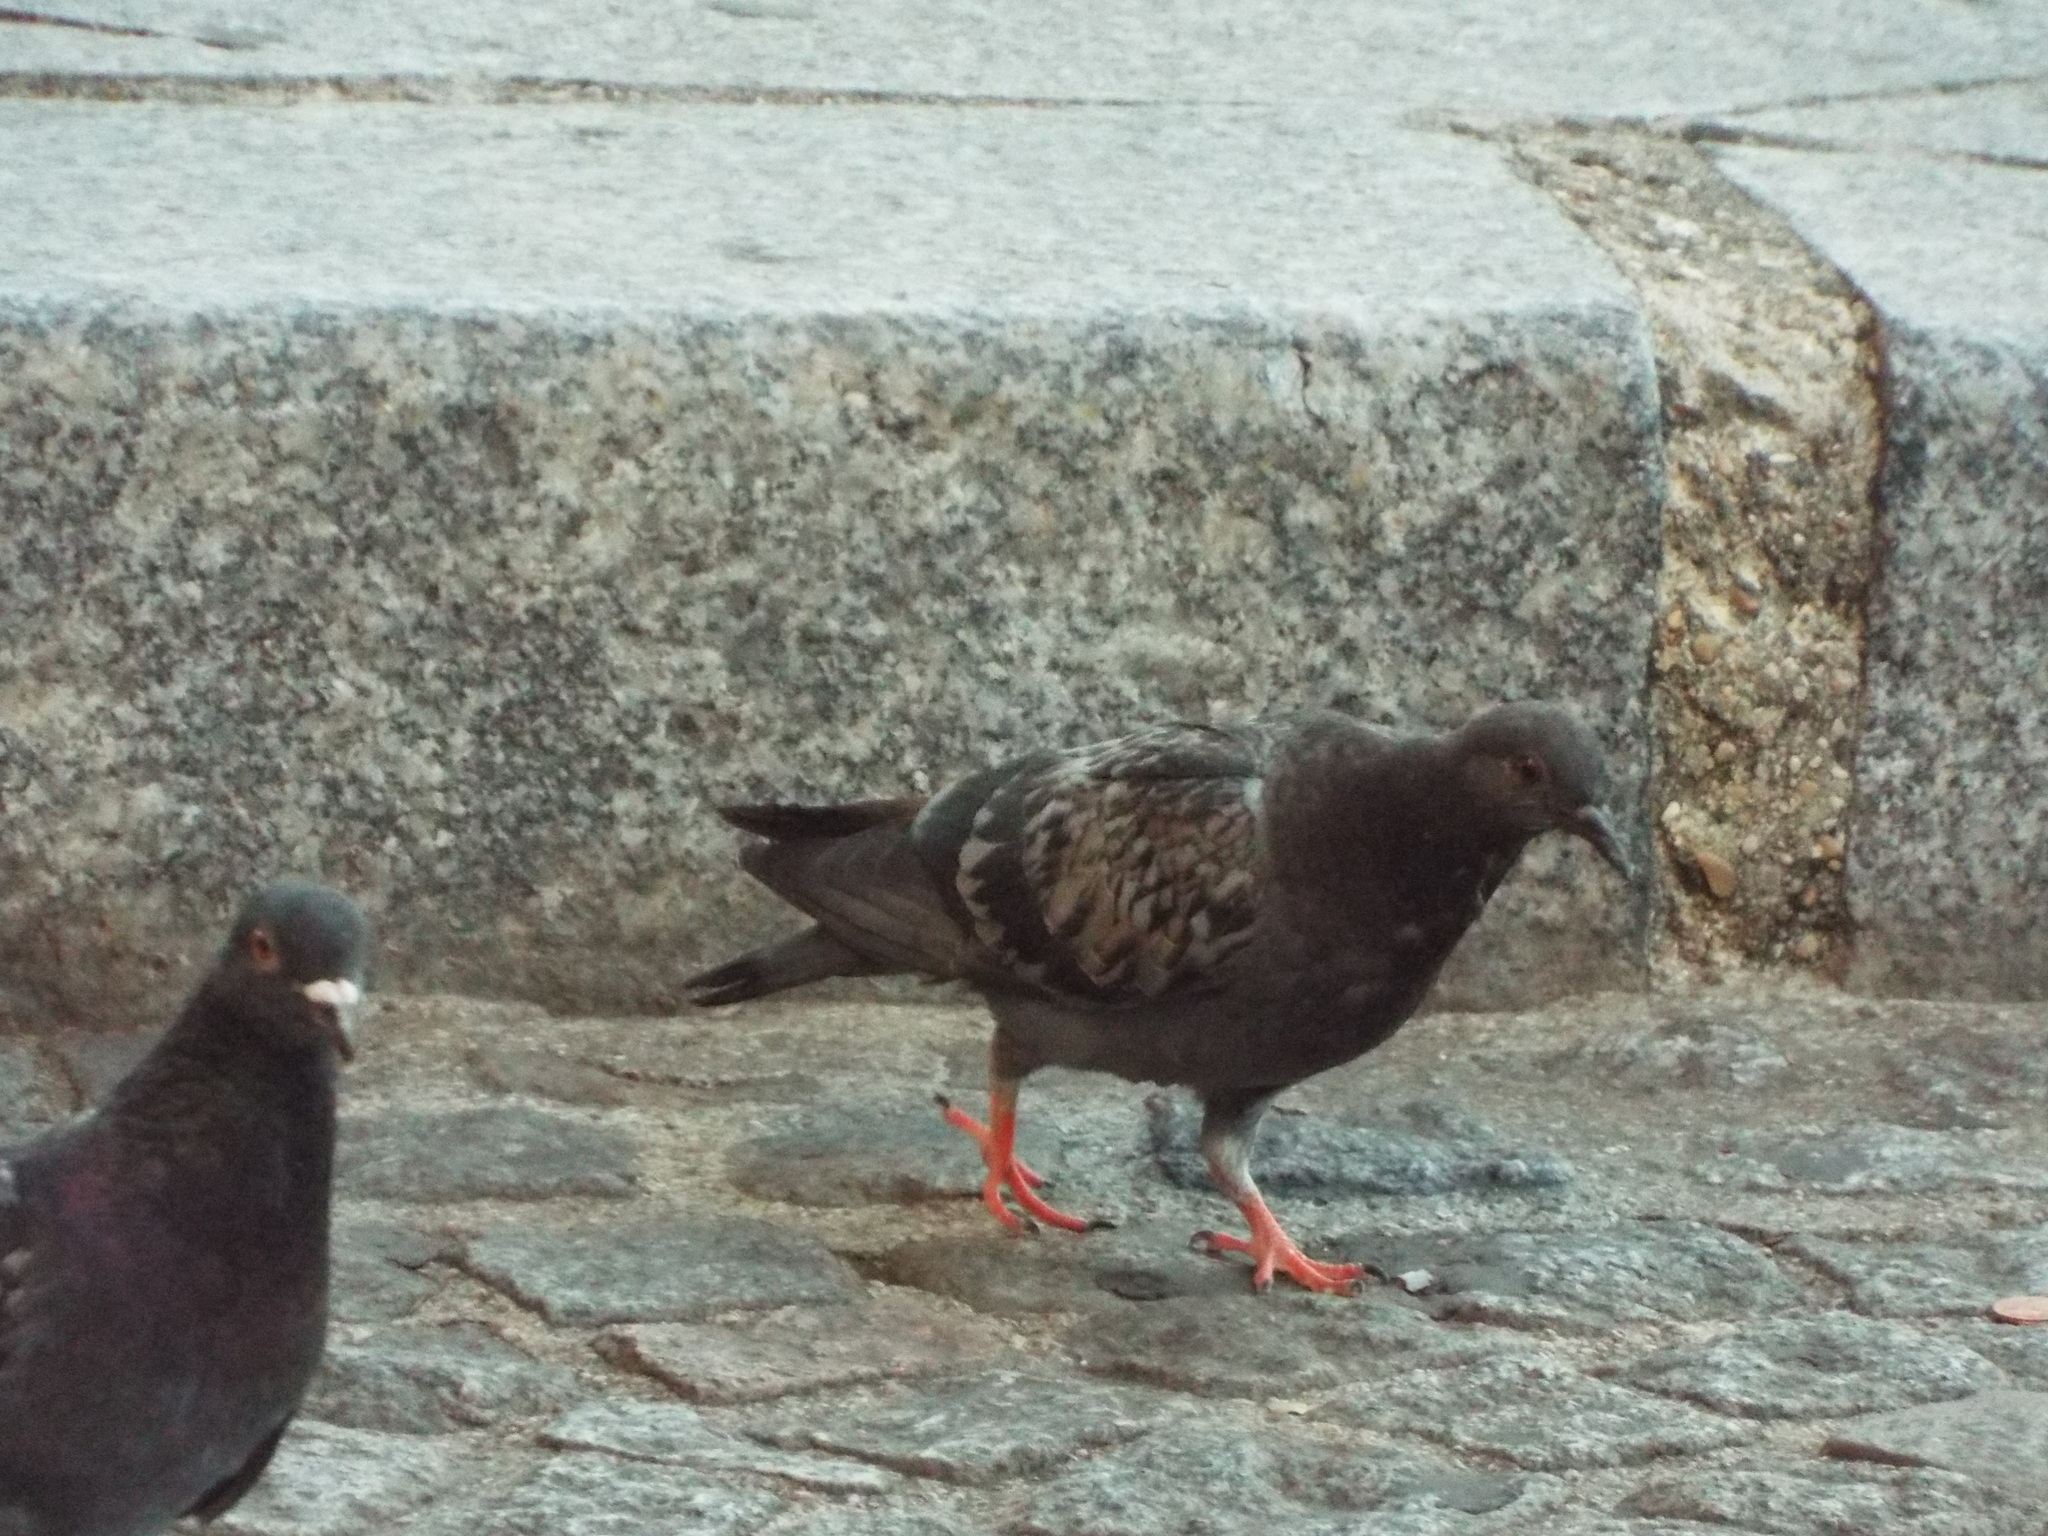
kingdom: Animalia
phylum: Chordata
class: Aves
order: Columbiformes
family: Columbidae
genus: Columba
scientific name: Columba livia
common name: Rock pigeon
